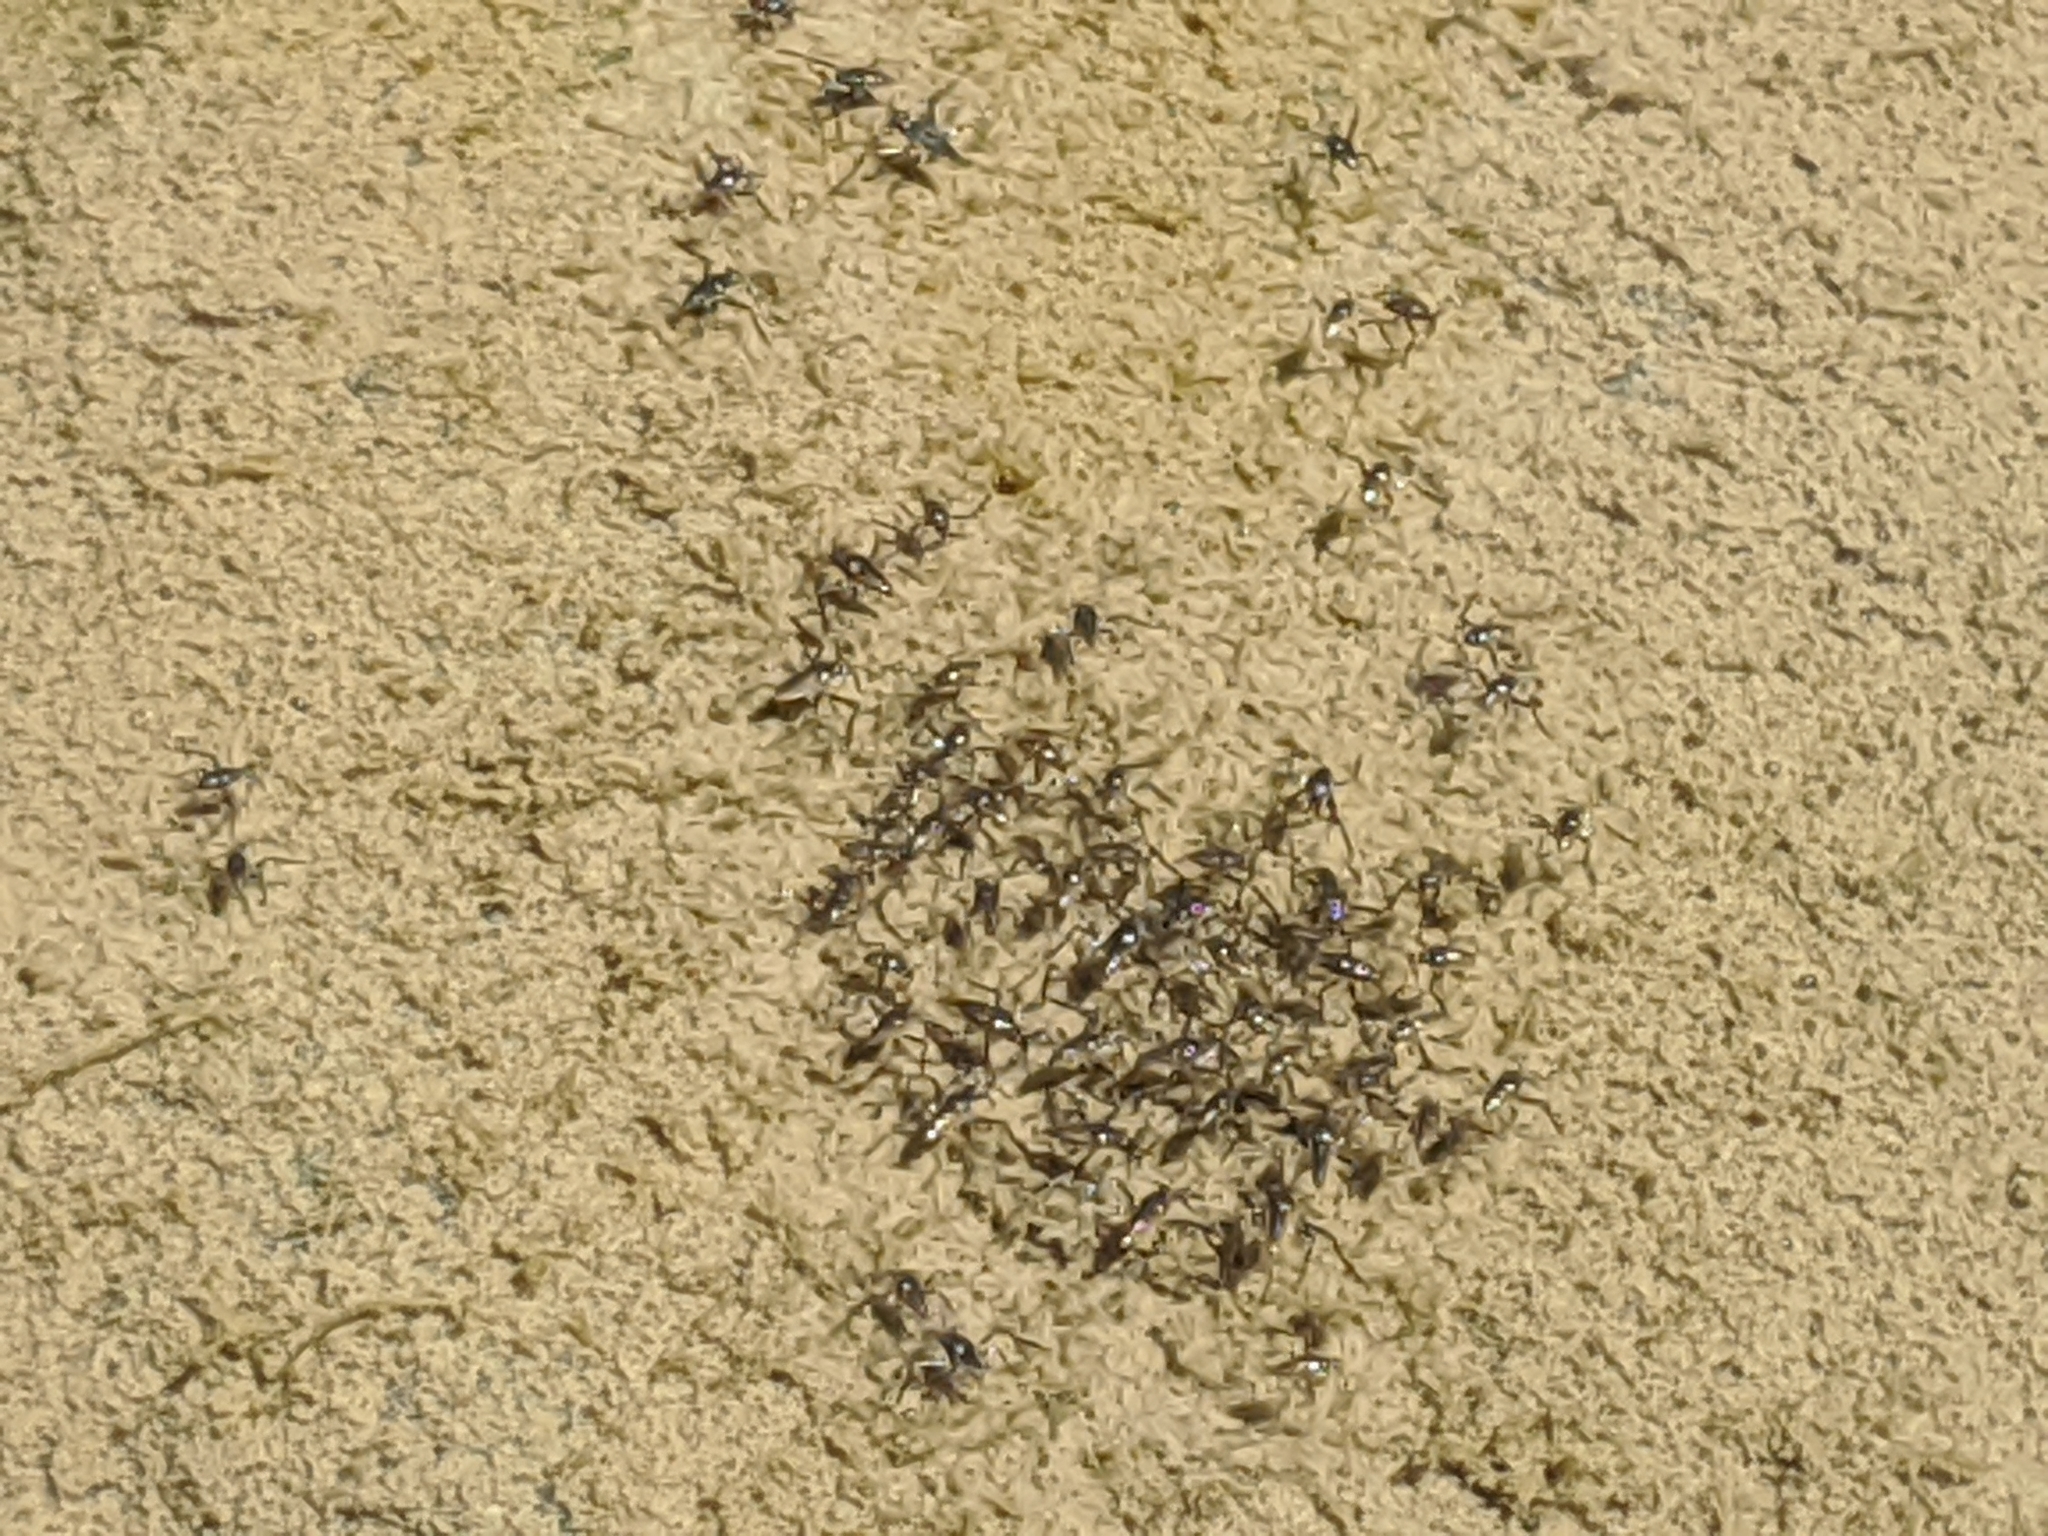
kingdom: Animalia
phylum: Arthropoda
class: Insecta
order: Hemiptera
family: Veliidae
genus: Rhagovelia
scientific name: Rhagovelia
